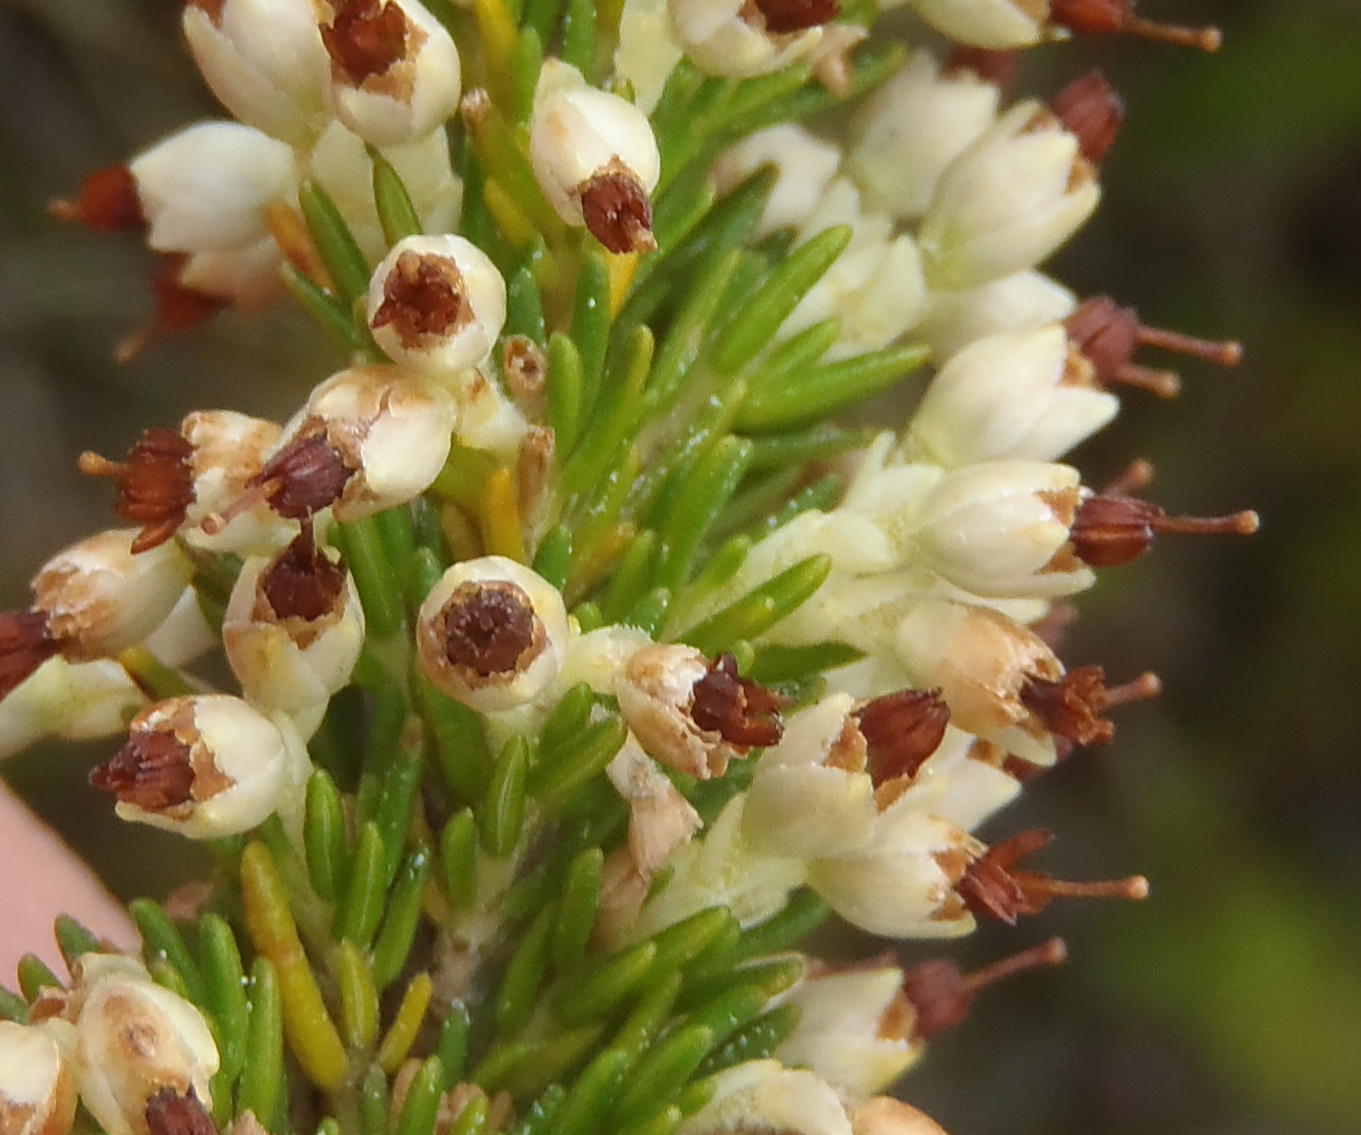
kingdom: Plantae
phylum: Tracheophyta
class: Magnoliopsida
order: Ericales
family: Ericaceae
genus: Erica
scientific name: Erica imbricata
